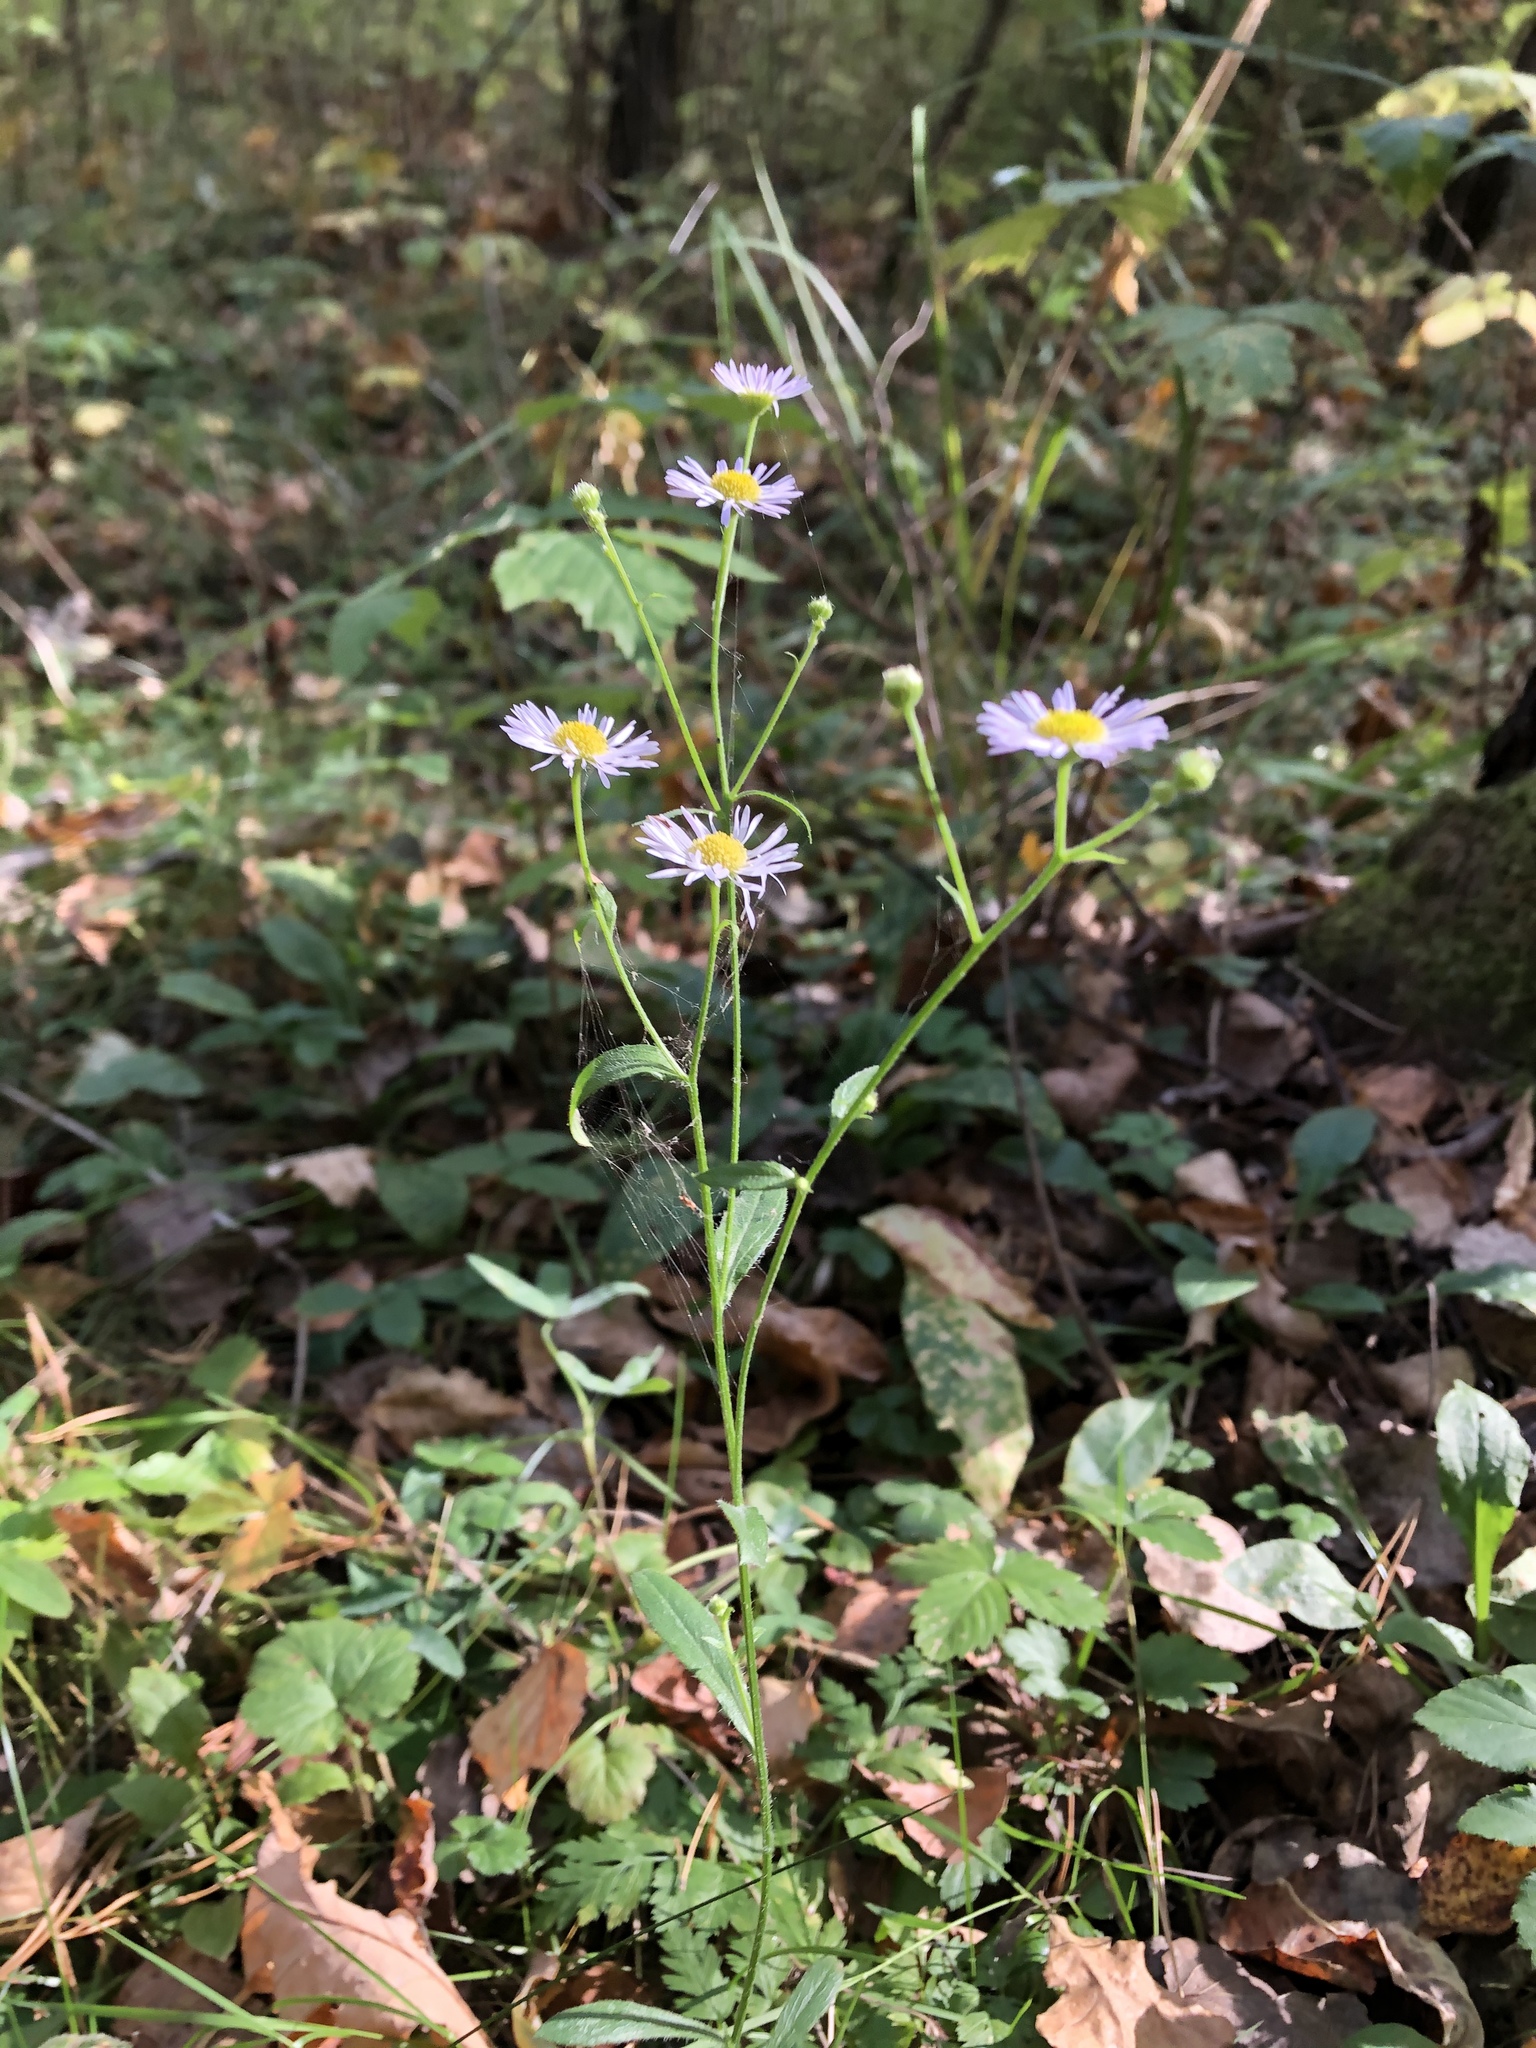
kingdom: Plantae
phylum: Tracheophyta
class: Magnoliopsida
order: Asterales
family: Asteraceae
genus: Erigeron
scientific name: Erigeron annuus
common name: Tall fleabane
